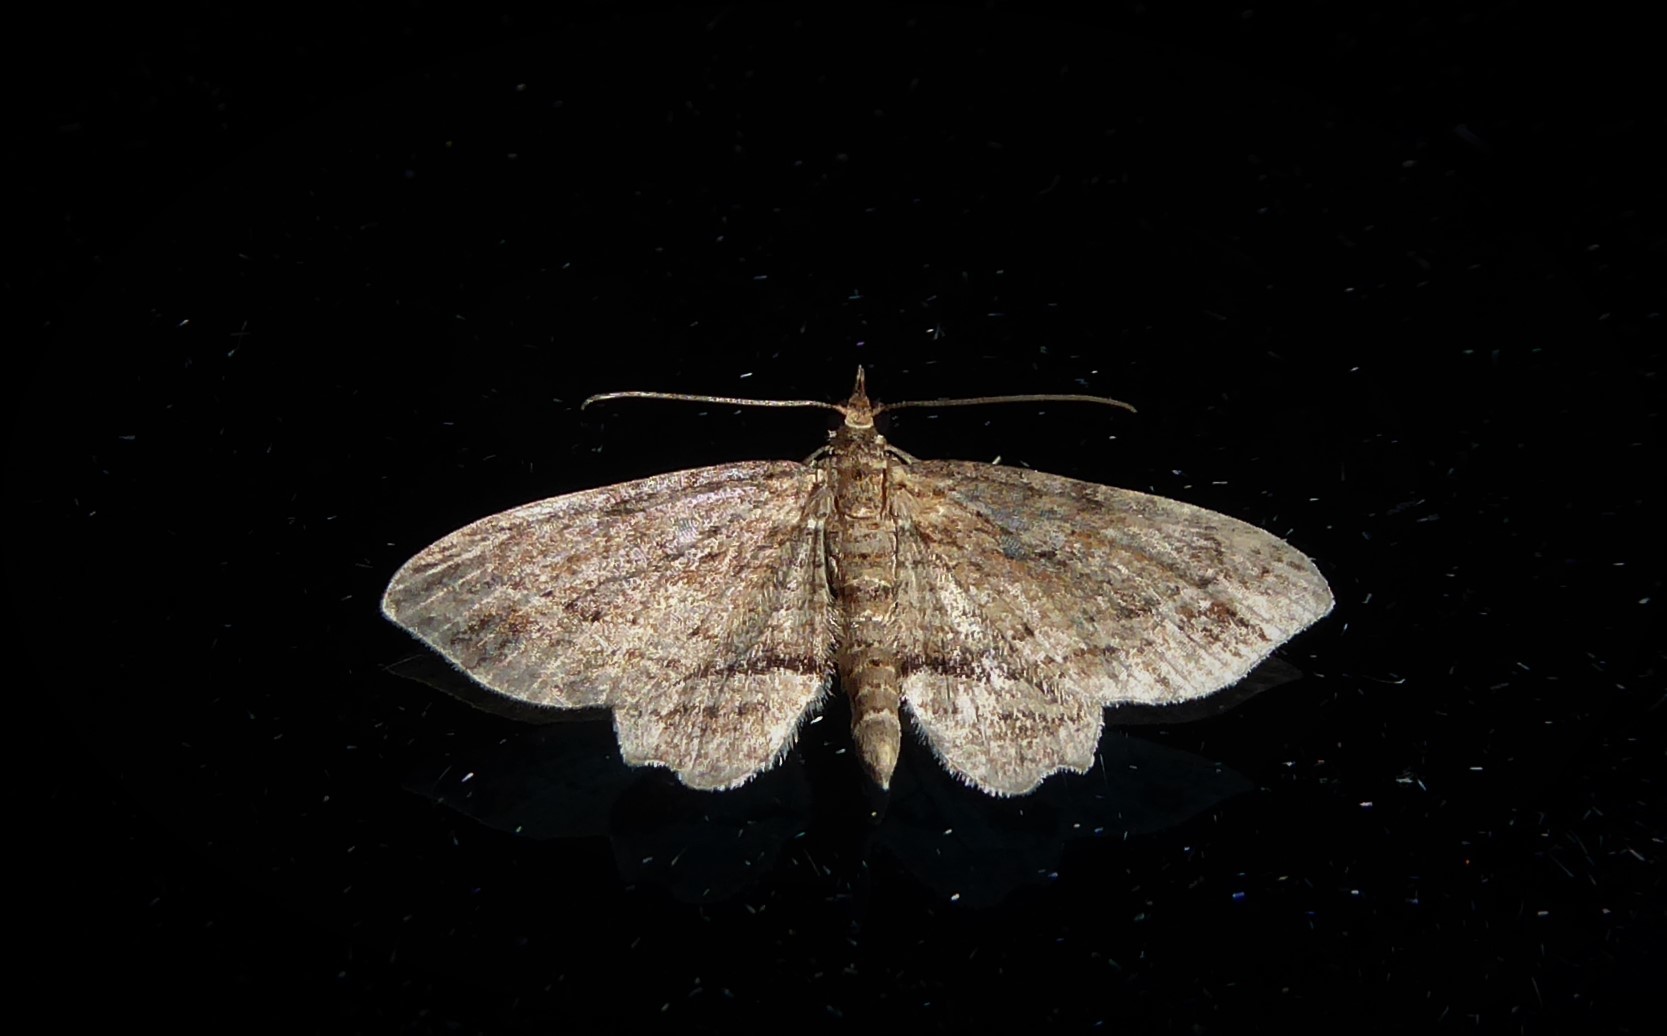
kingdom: Animalia
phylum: Arthropoda
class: Insecta
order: Lepidoptera
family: Geometridae
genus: Chloroclystis
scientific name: Chloroclystis filata
